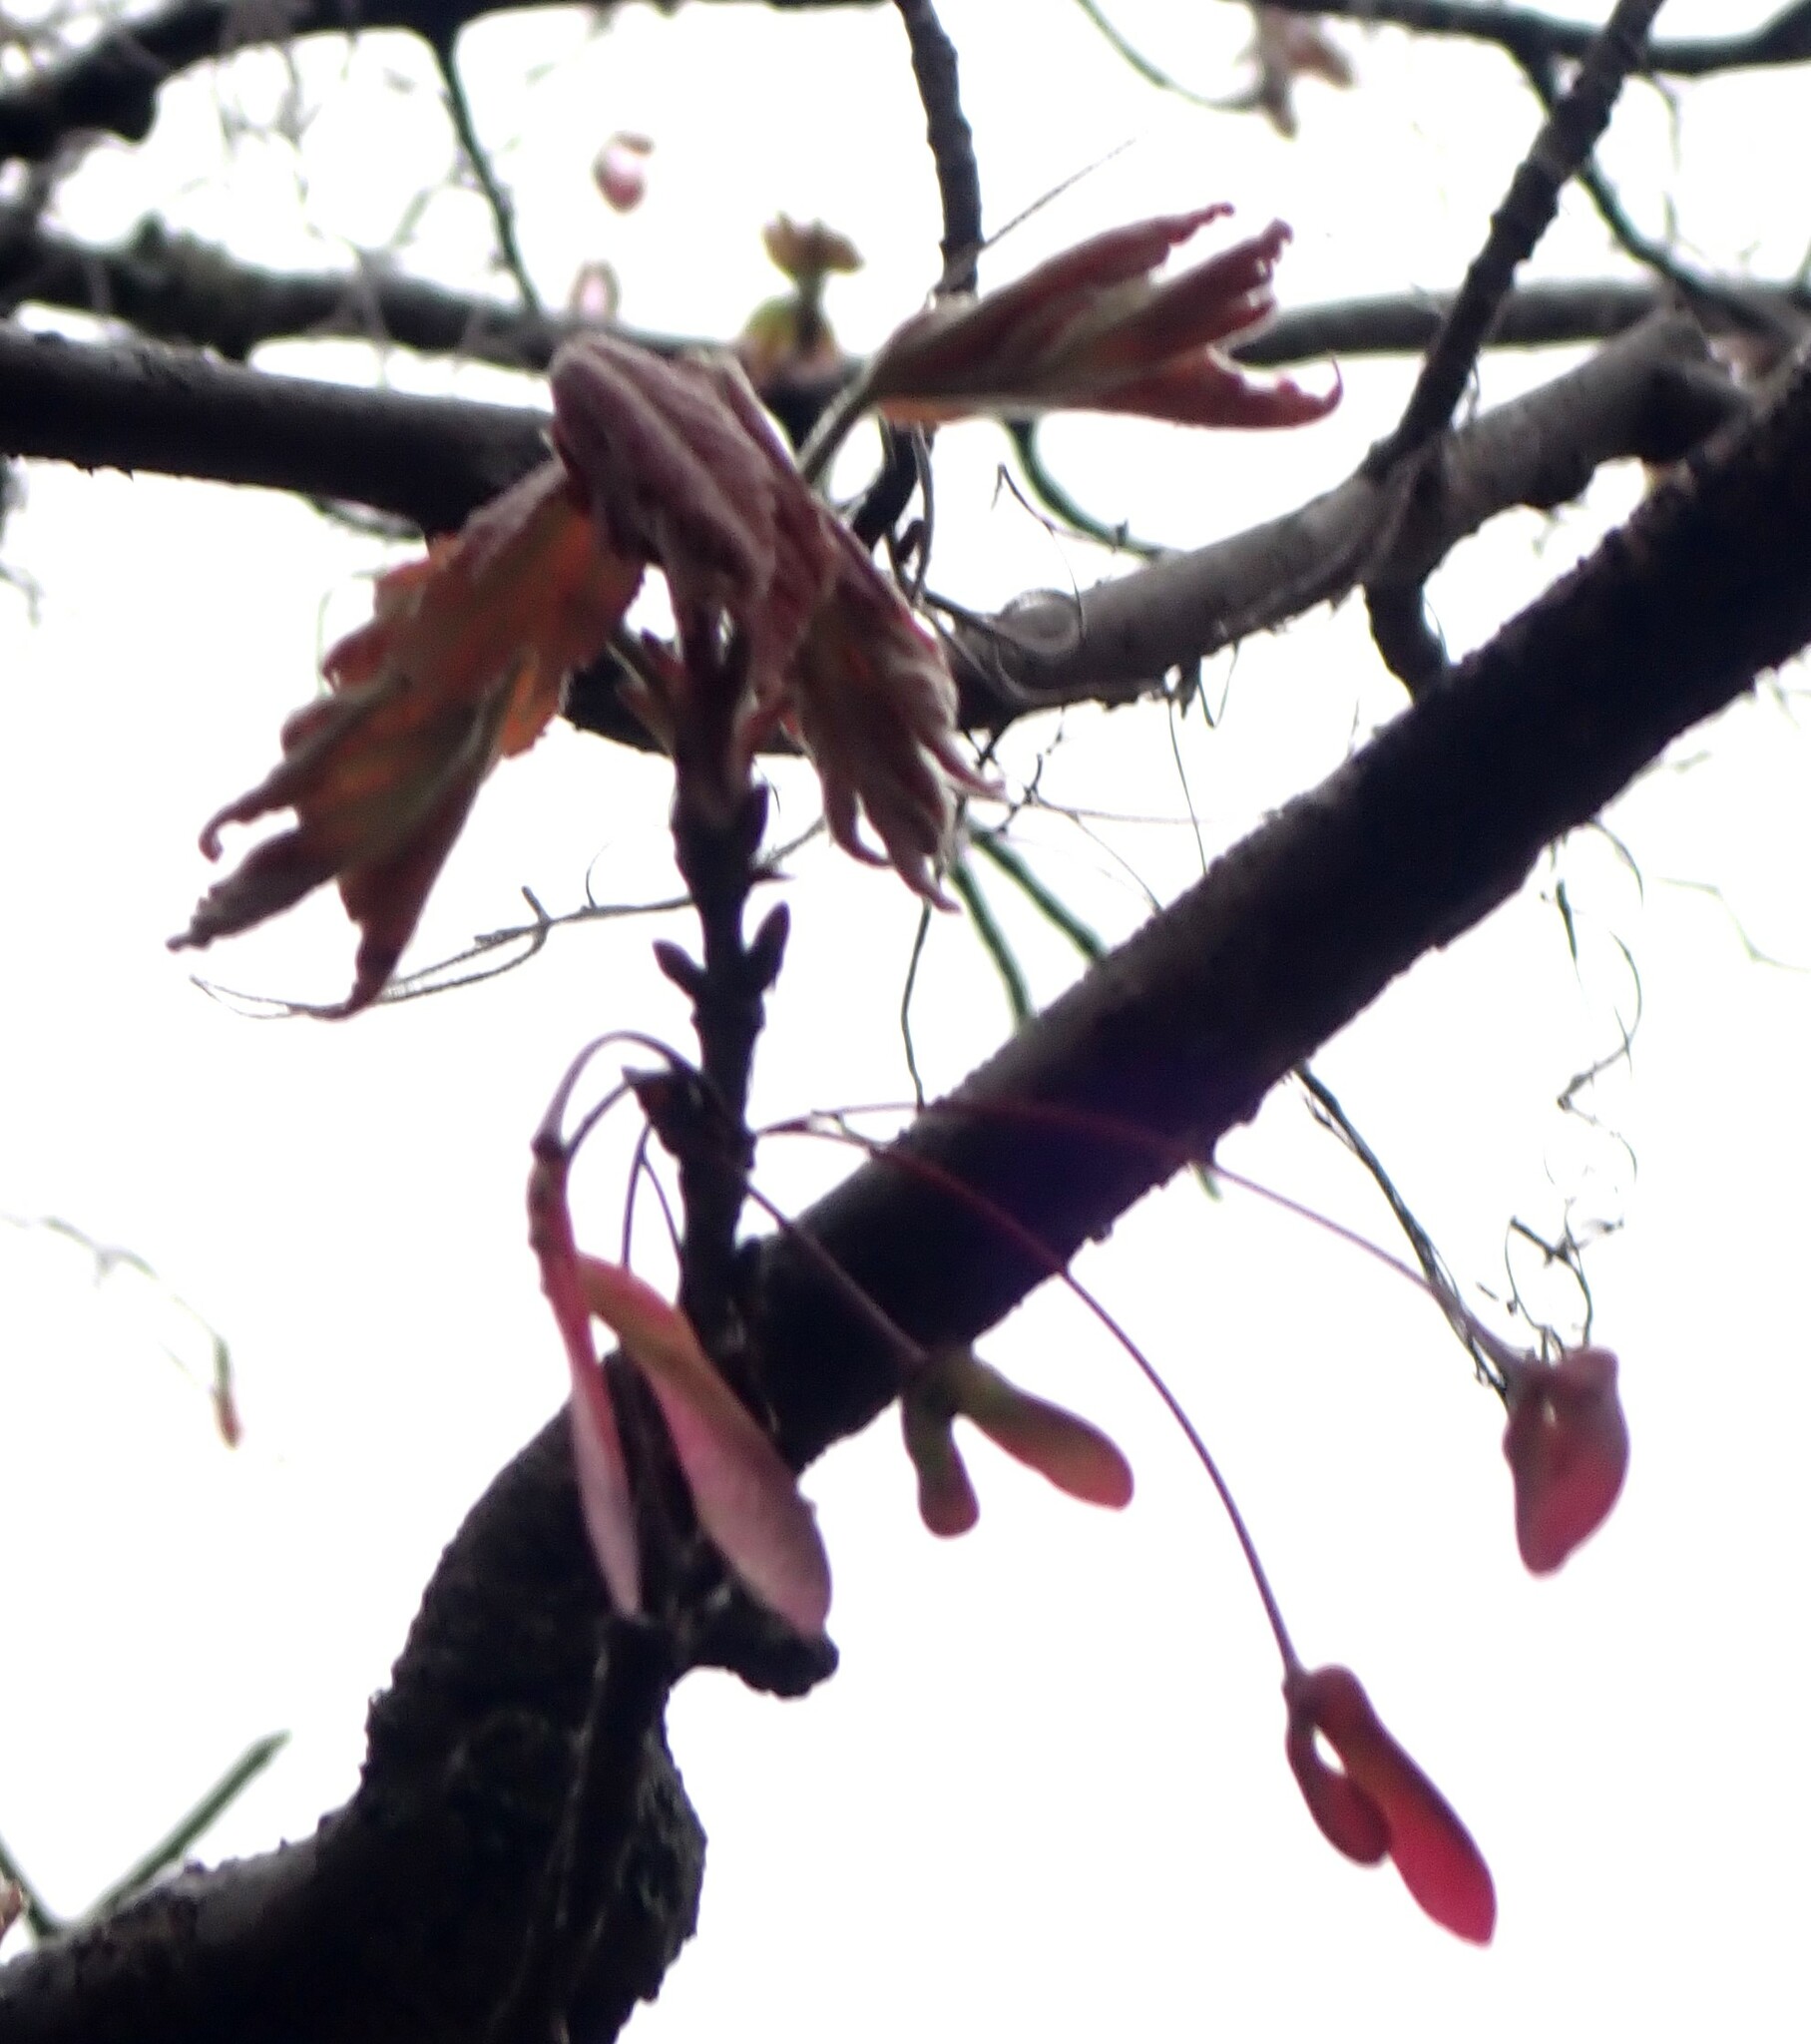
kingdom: Plantae
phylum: Tracheophyta
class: Magnoliopsida
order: Sapindales
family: Sapindaceae
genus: Acer
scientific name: Acer rubrum
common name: Red maple
